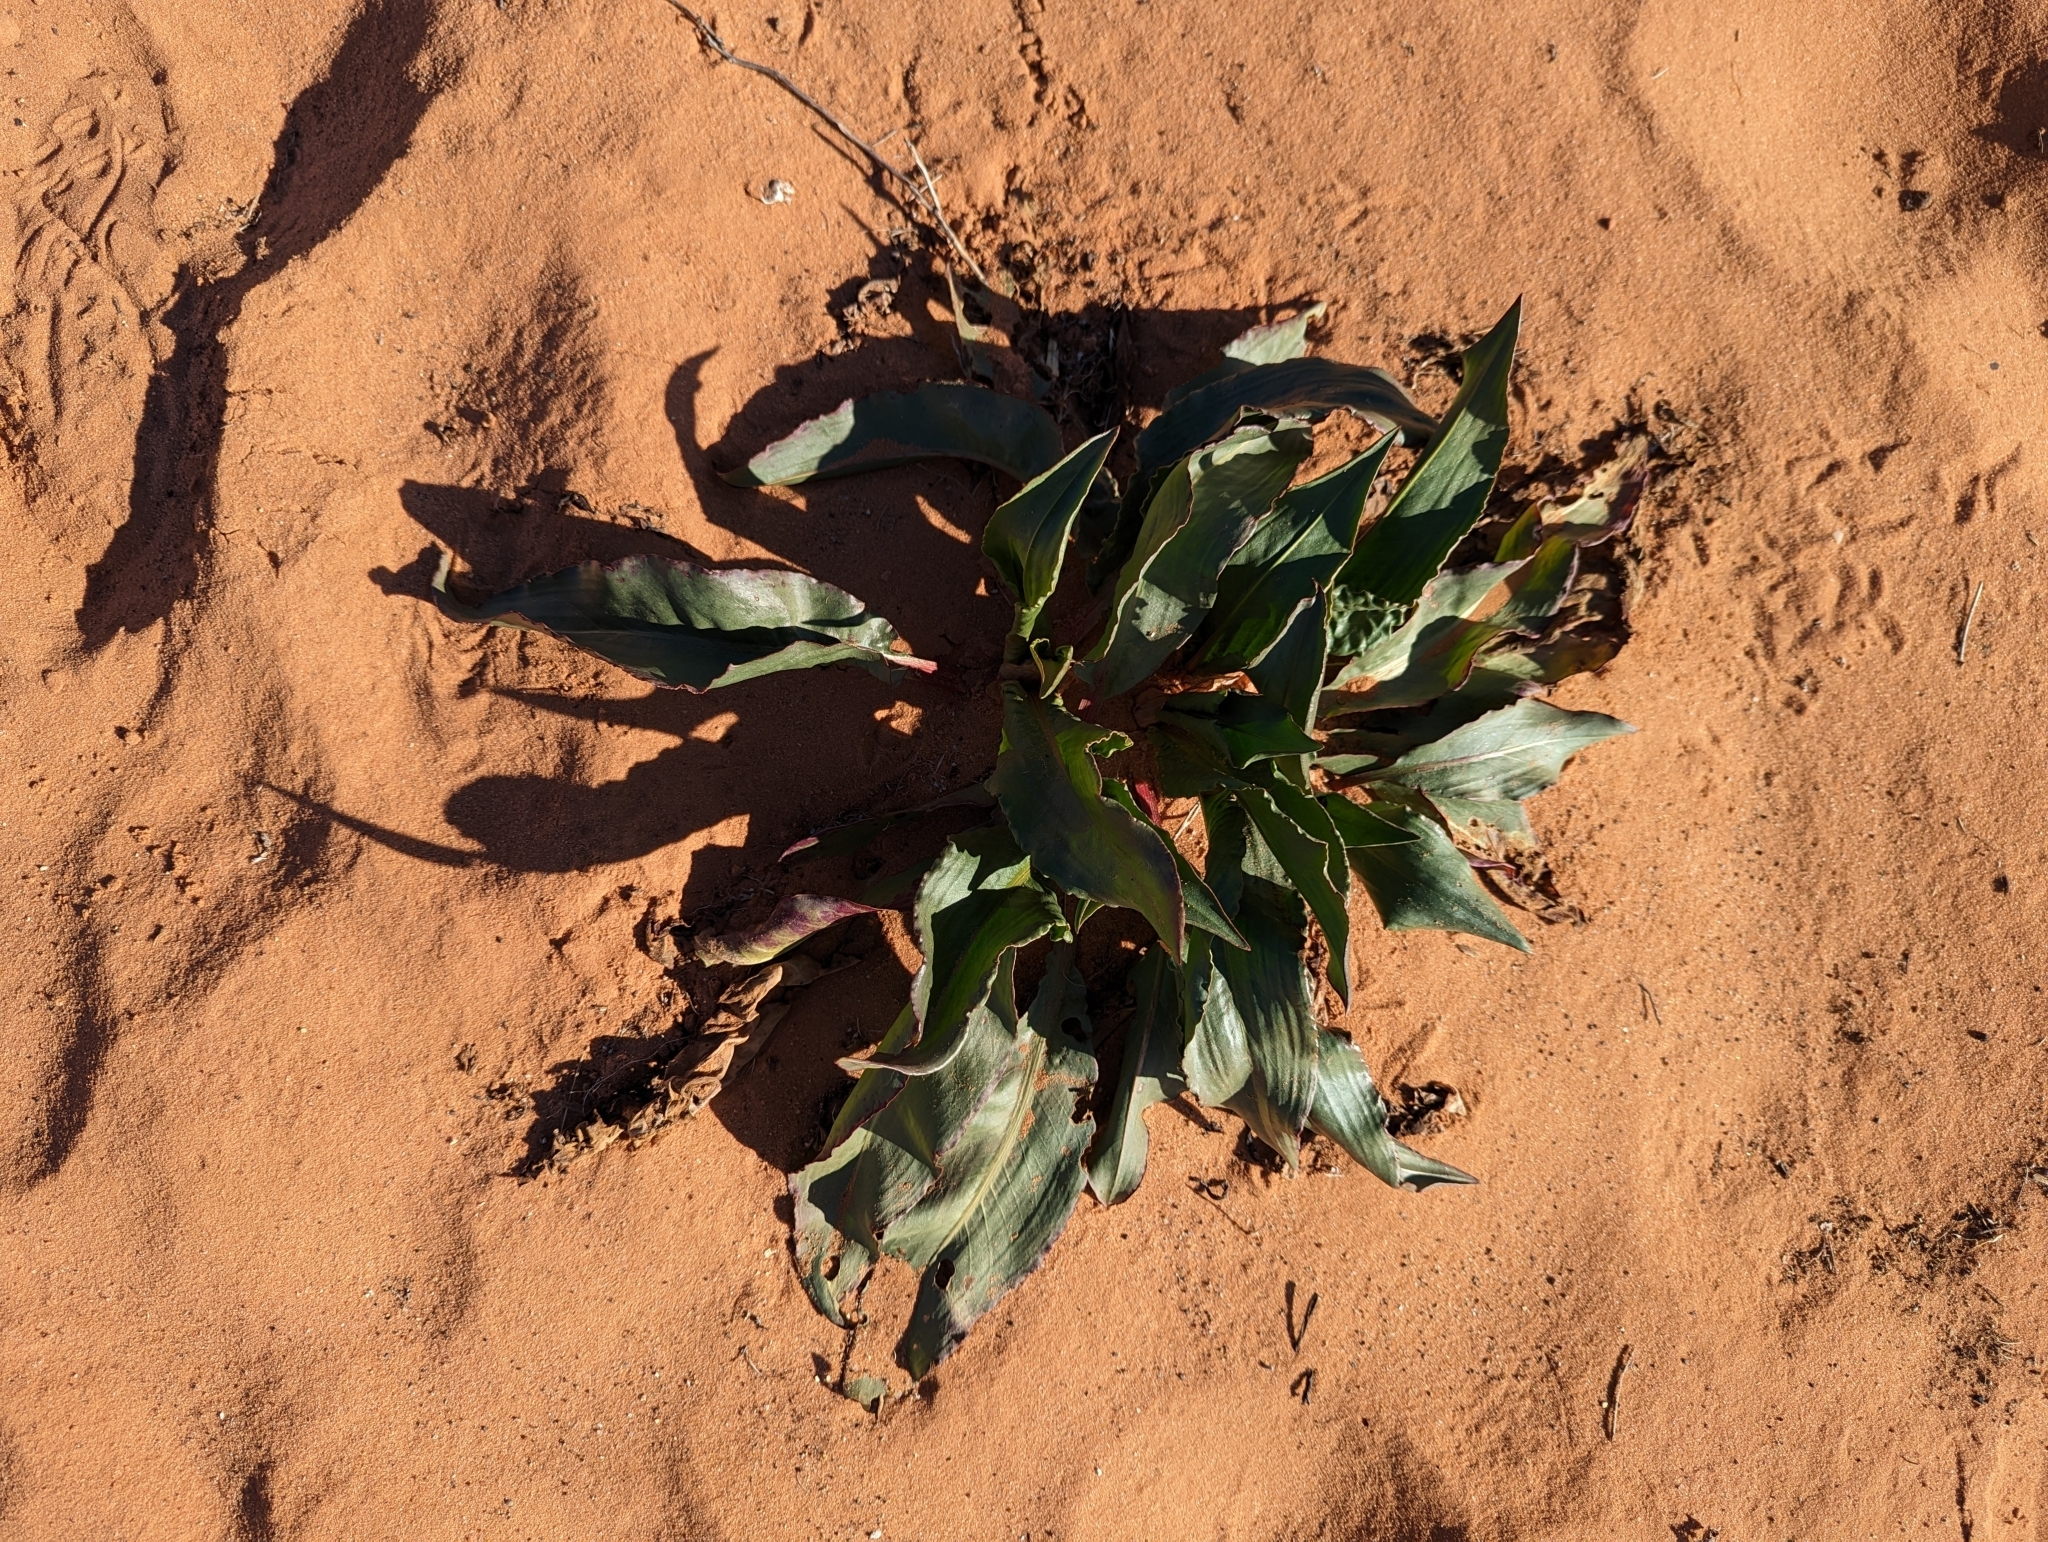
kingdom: Plantae
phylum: Tracheophyta
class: Magnoliopsida
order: Caryophyllales
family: Polygonaceae
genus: Rumex
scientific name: Rumex hymenosepalus
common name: Ganagra
